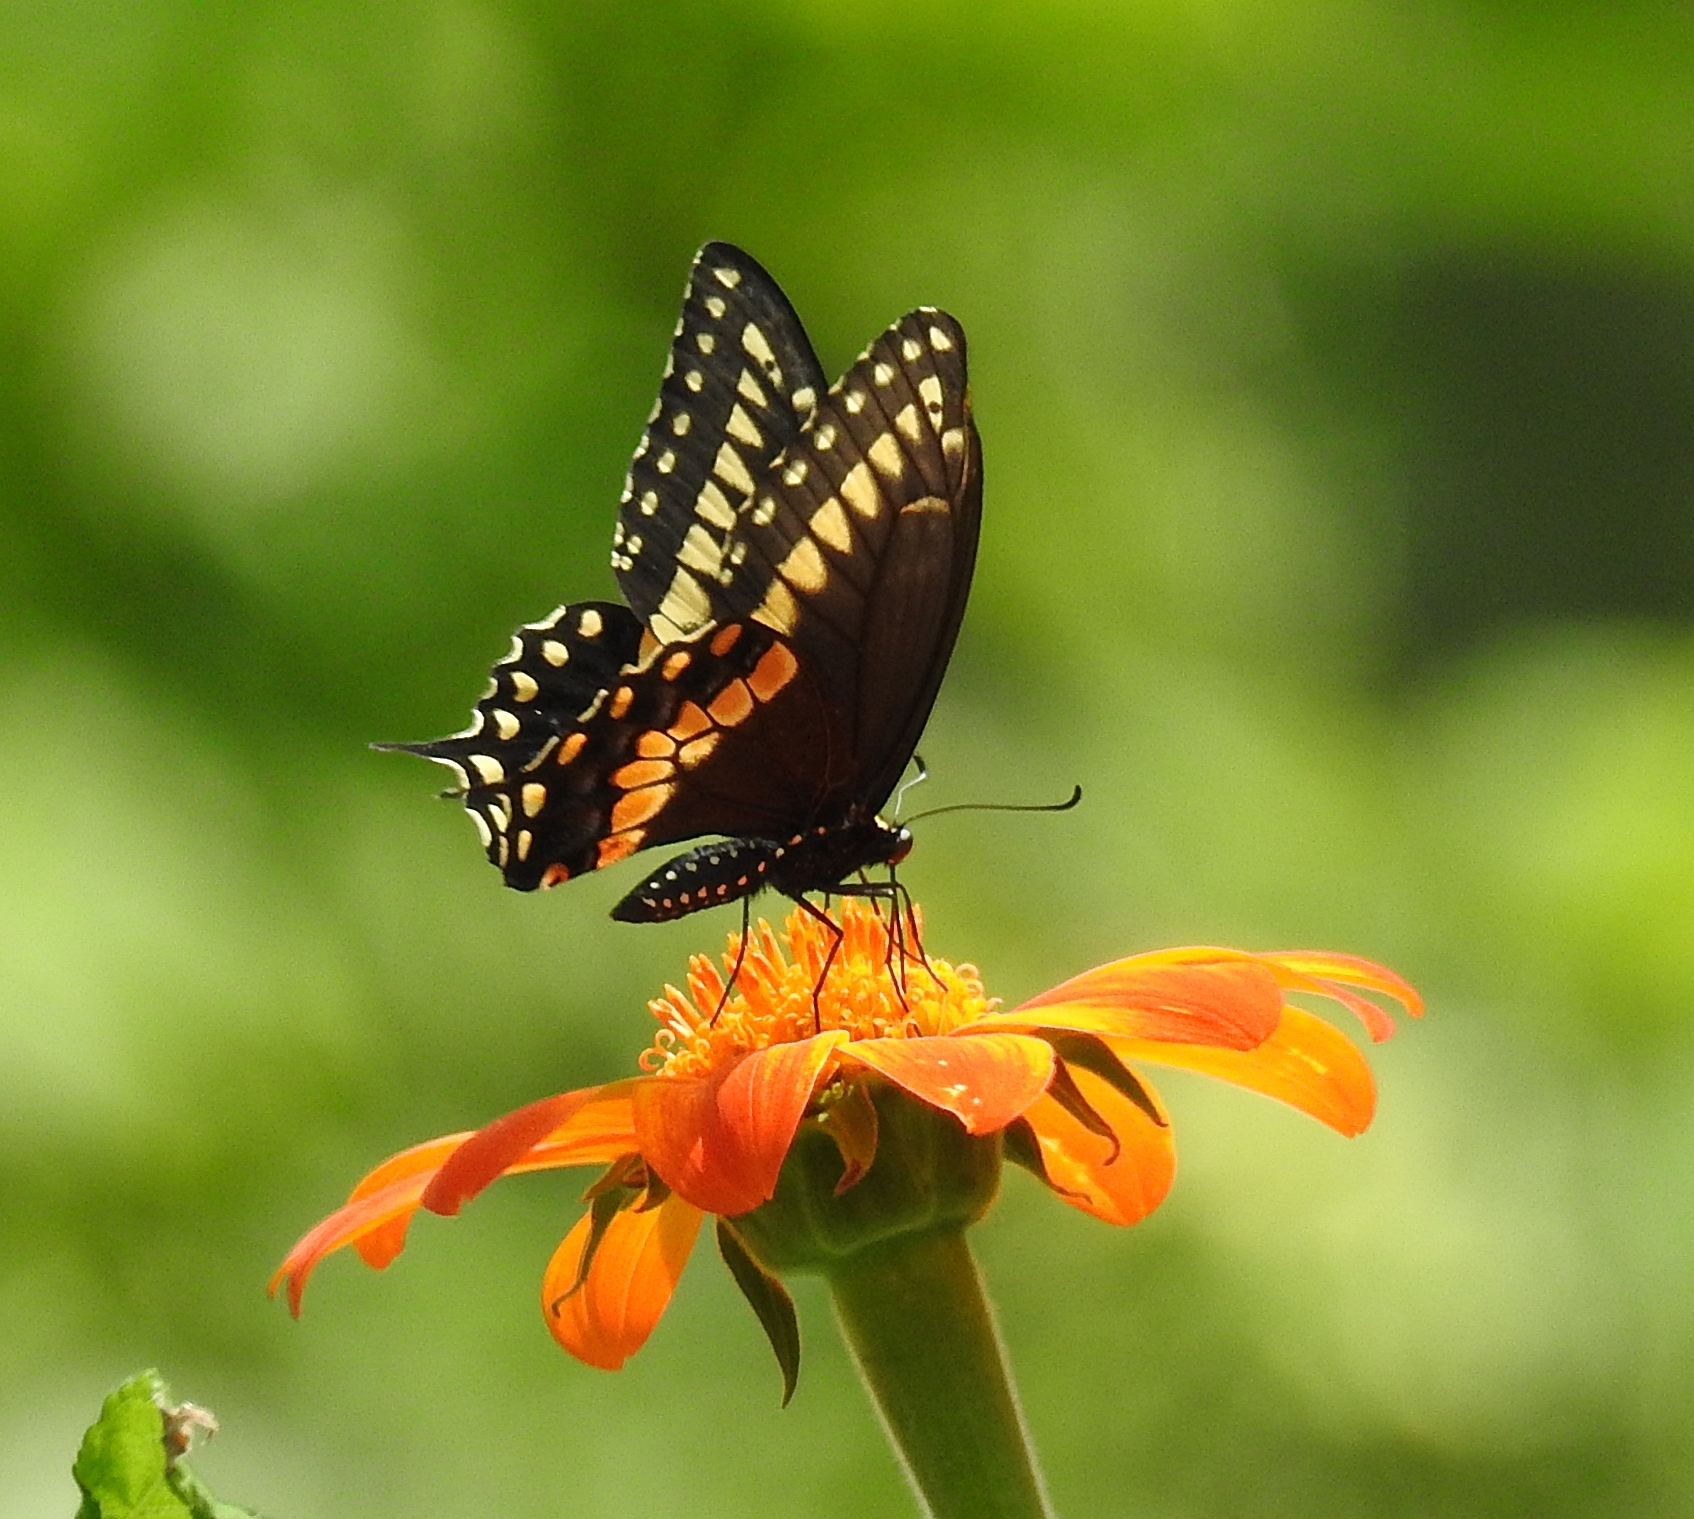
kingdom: Animalia
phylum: Arthropoda
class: Insecta
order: Lepidoptera
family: Papilionidae
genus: Papilio
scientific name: Papilio polyxenes
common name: Black swallowtail
